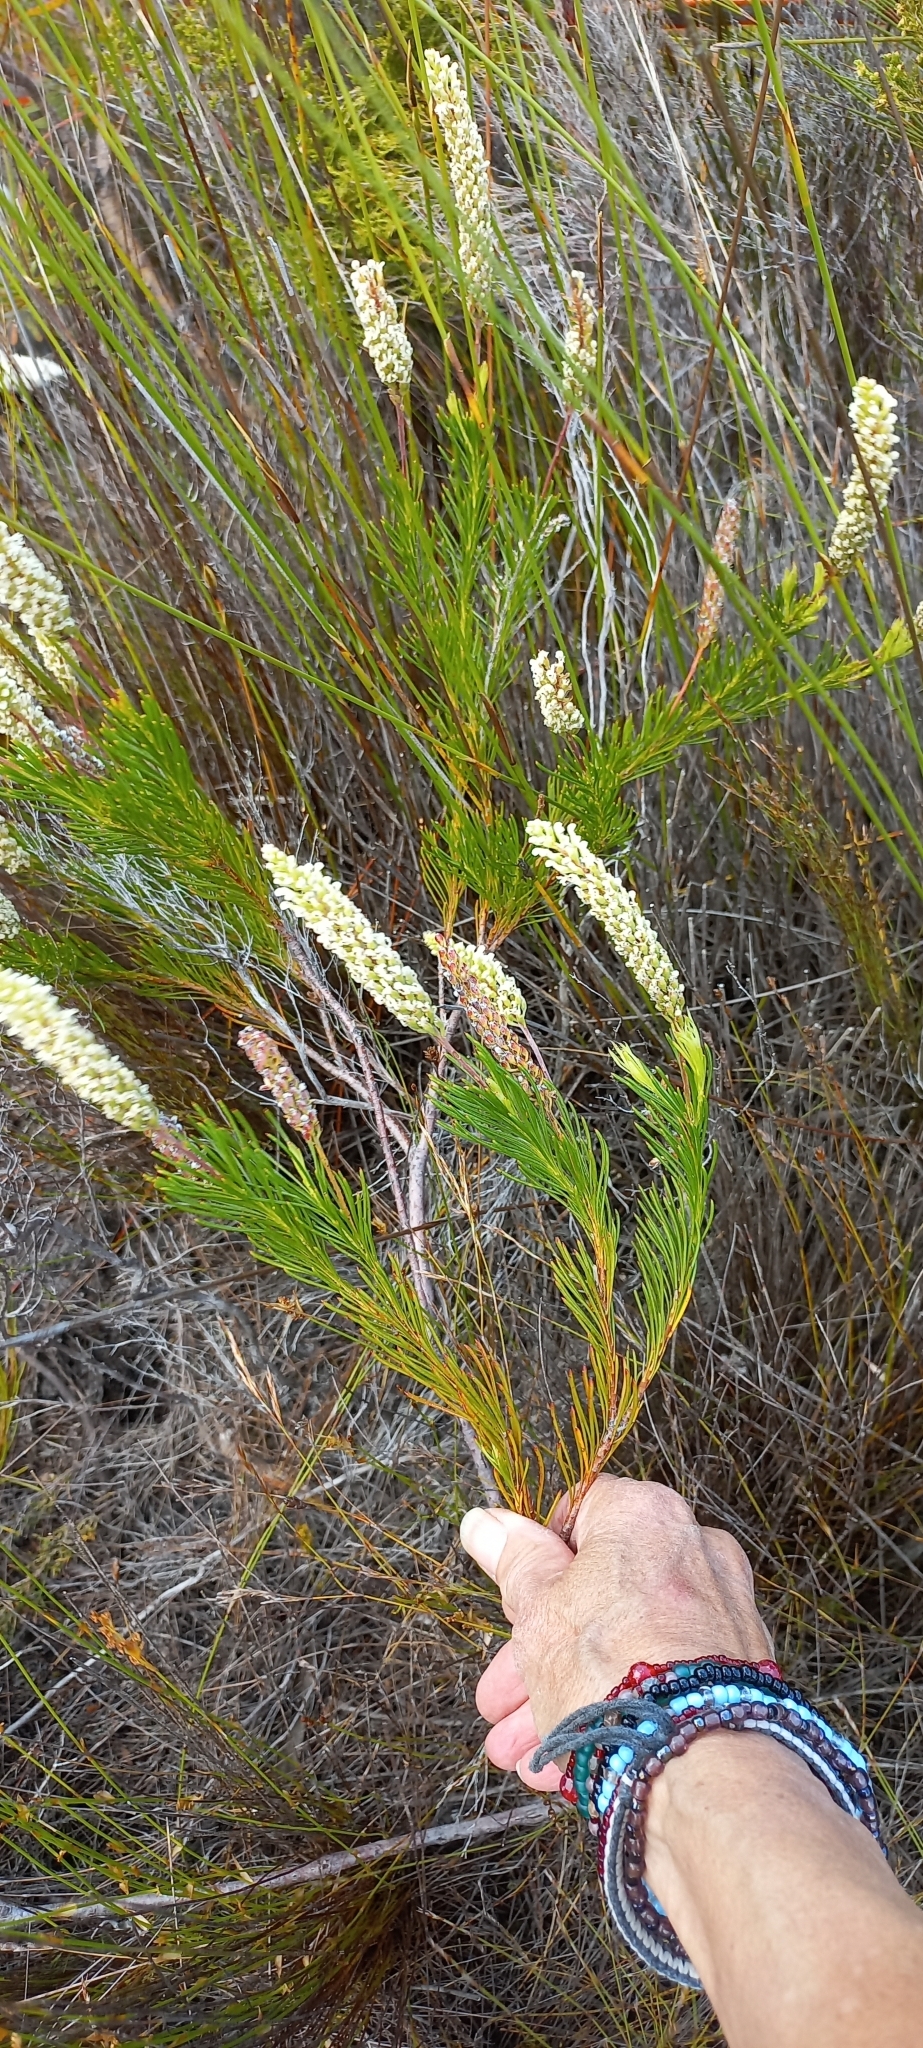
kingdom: Plantae
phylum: Tracheophyta
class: Magnoliopsida
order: Proteales
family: Proteaceae
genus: Spatalla
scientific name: Spatalla curvifolia
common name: White-stalked spoon
